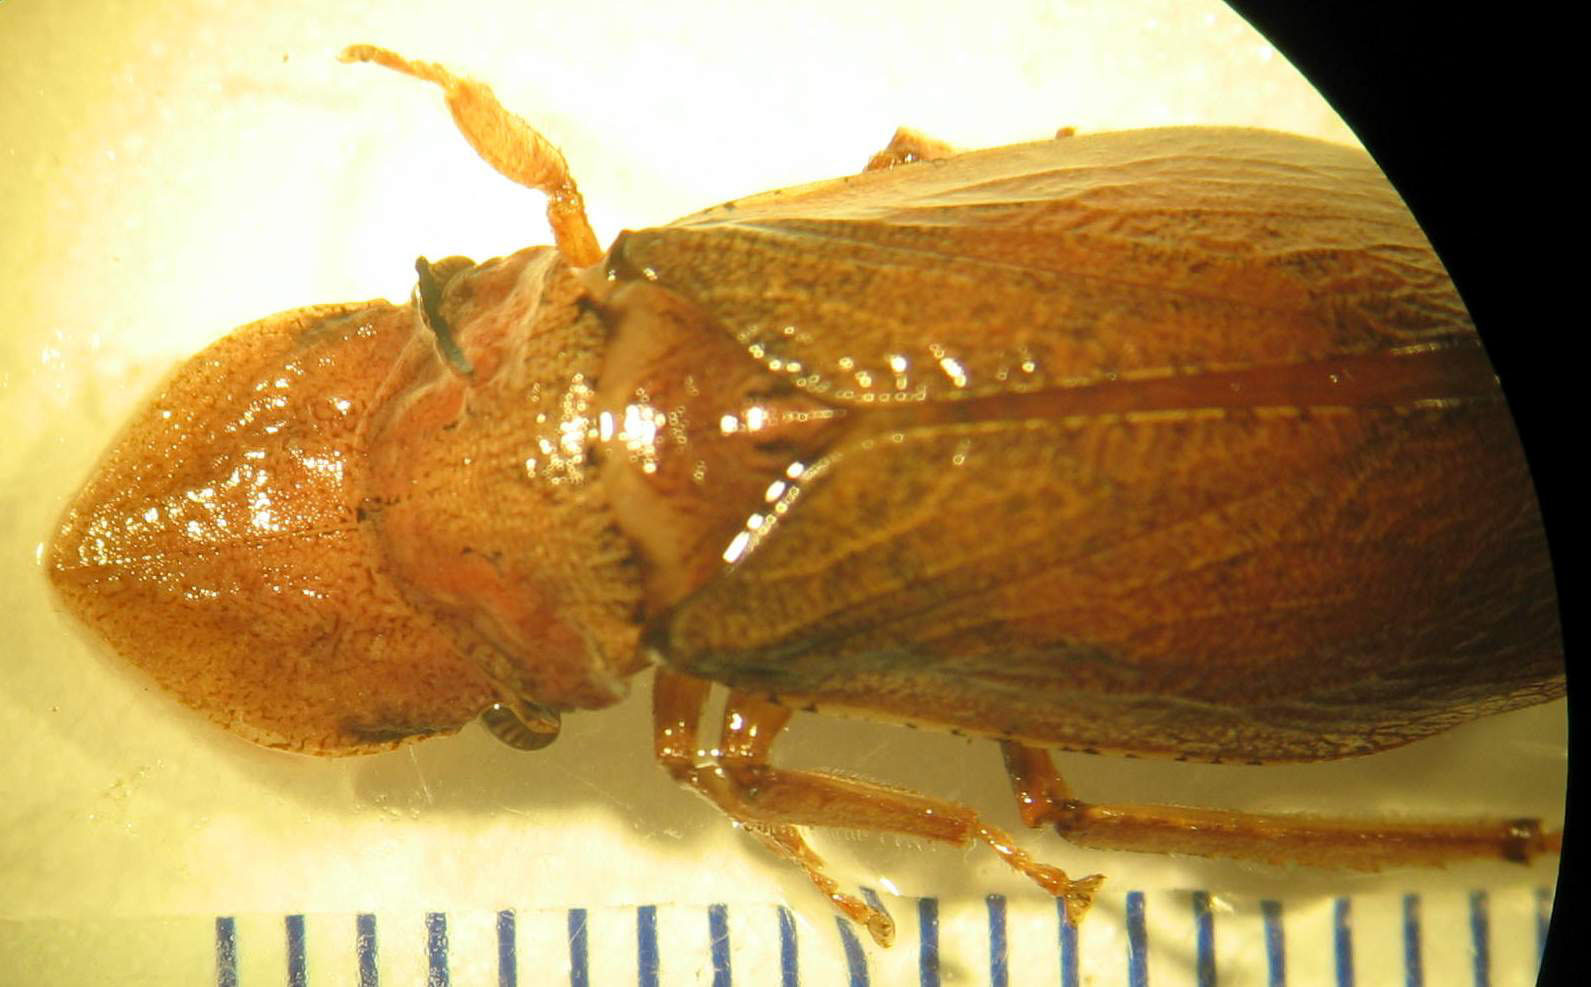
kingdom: Animalia
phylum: Arthropoda
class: Insecta
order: Hemiptera
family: Cicadellidae
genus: Ledromorpha
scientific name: Ledromorpha planirostris
